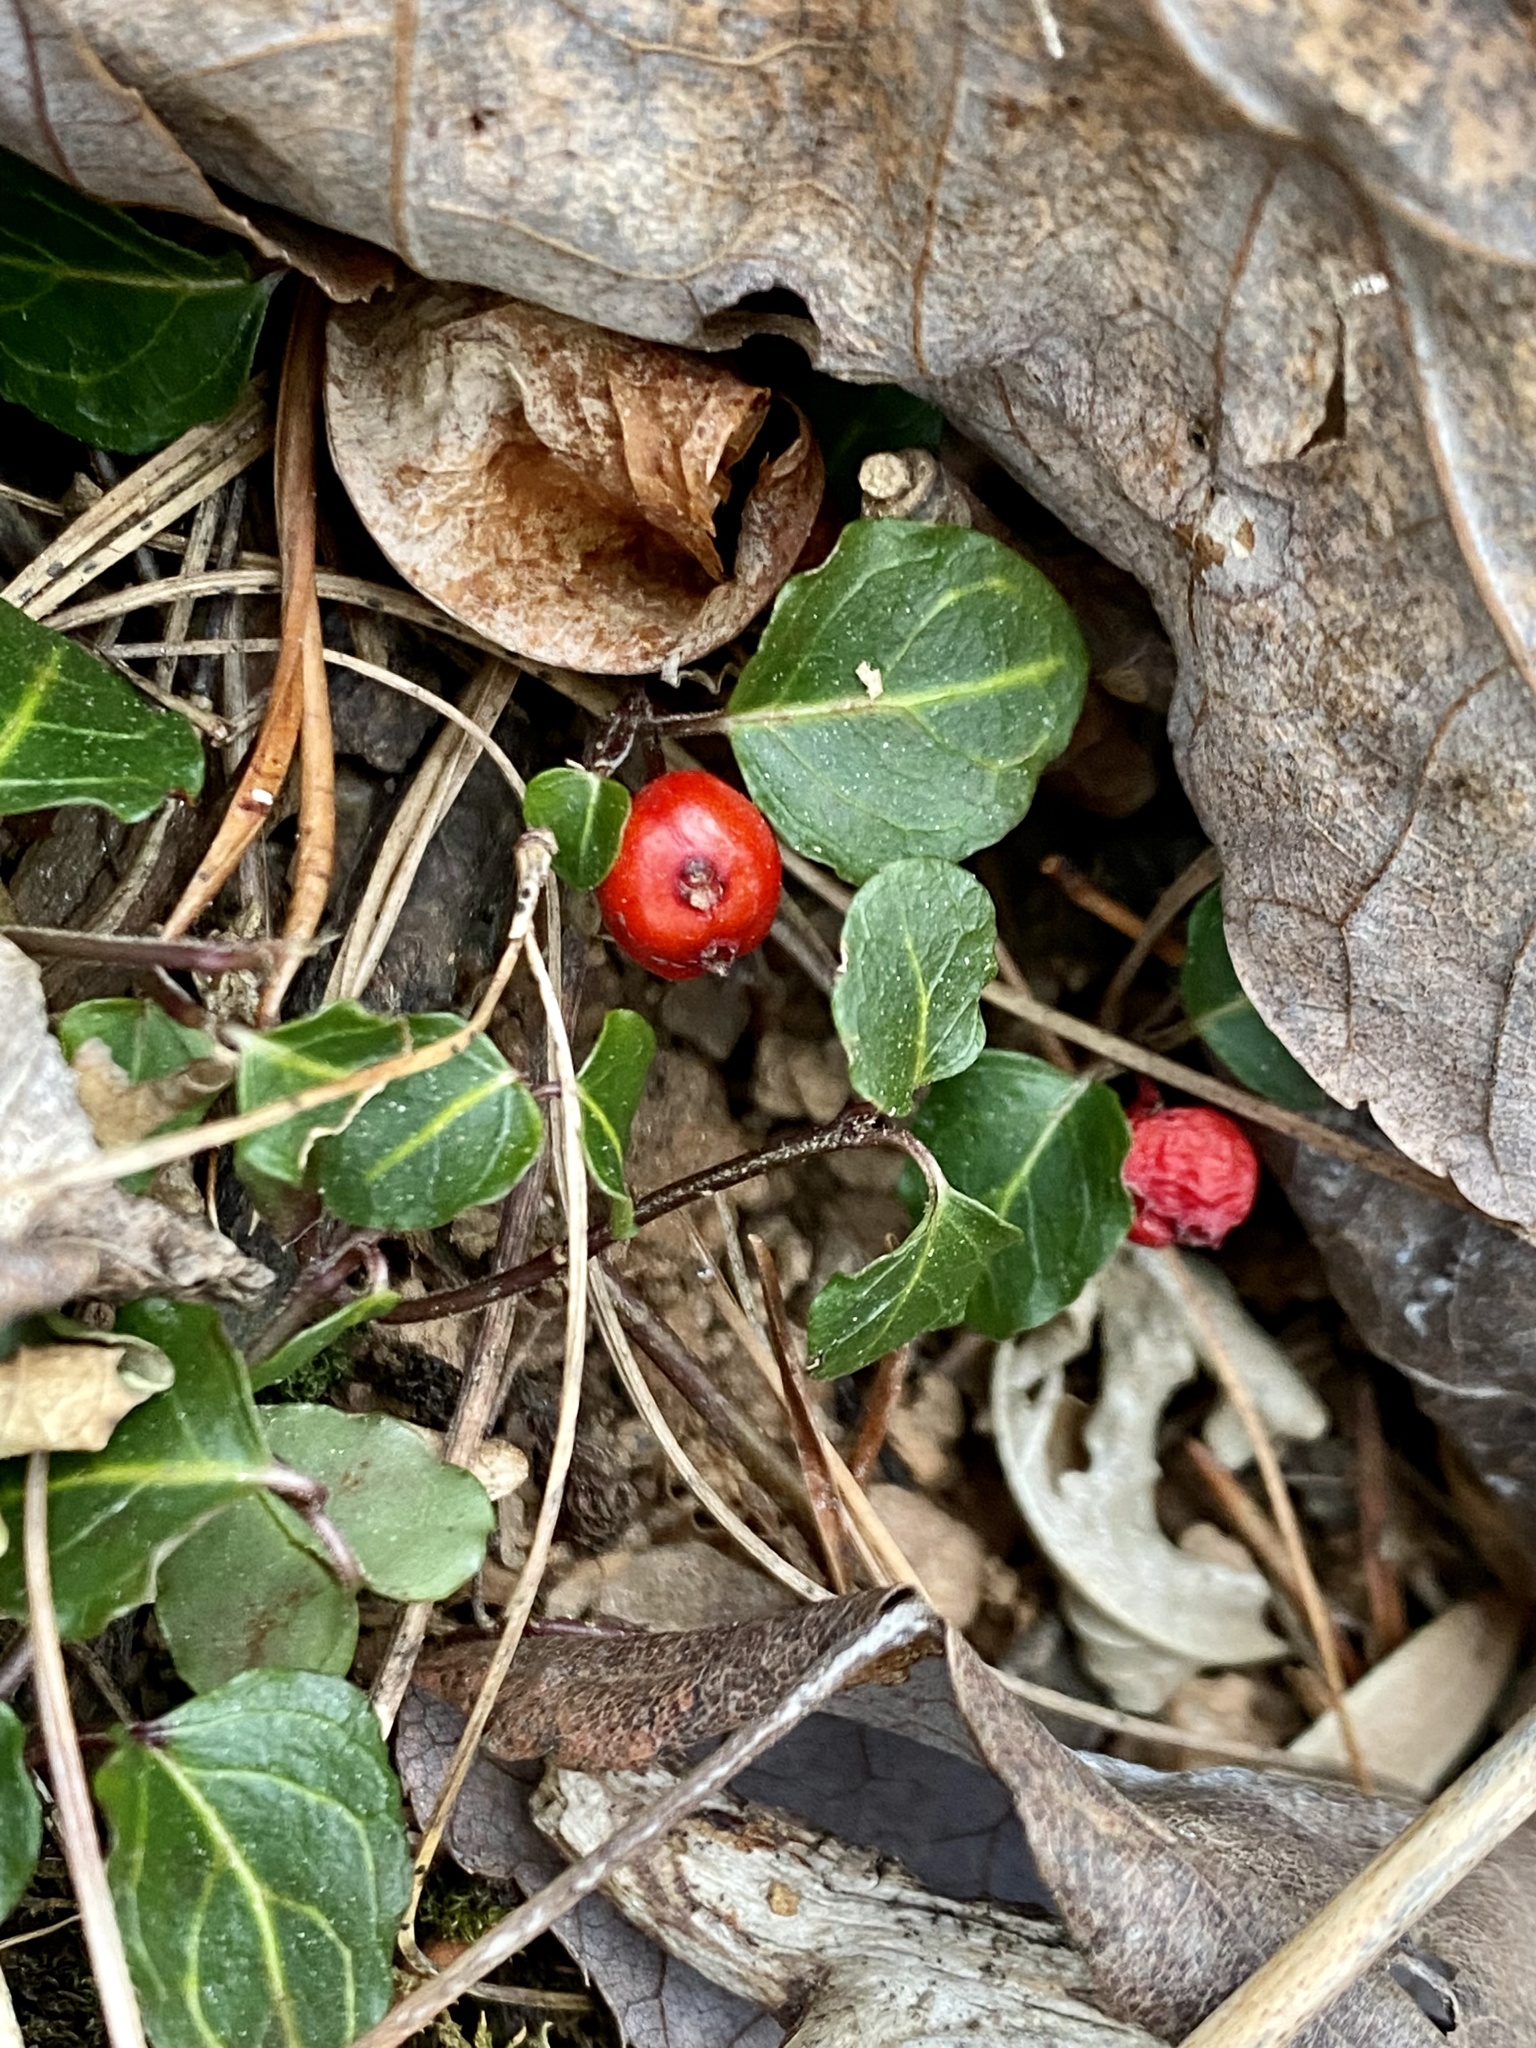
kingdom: Plantae
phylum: Tracheophyta
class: Magnoliopsida
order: Gentianales
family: Rubiaceae
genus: Mitchella
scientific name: Mitchella repens
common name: Partridge-berry
